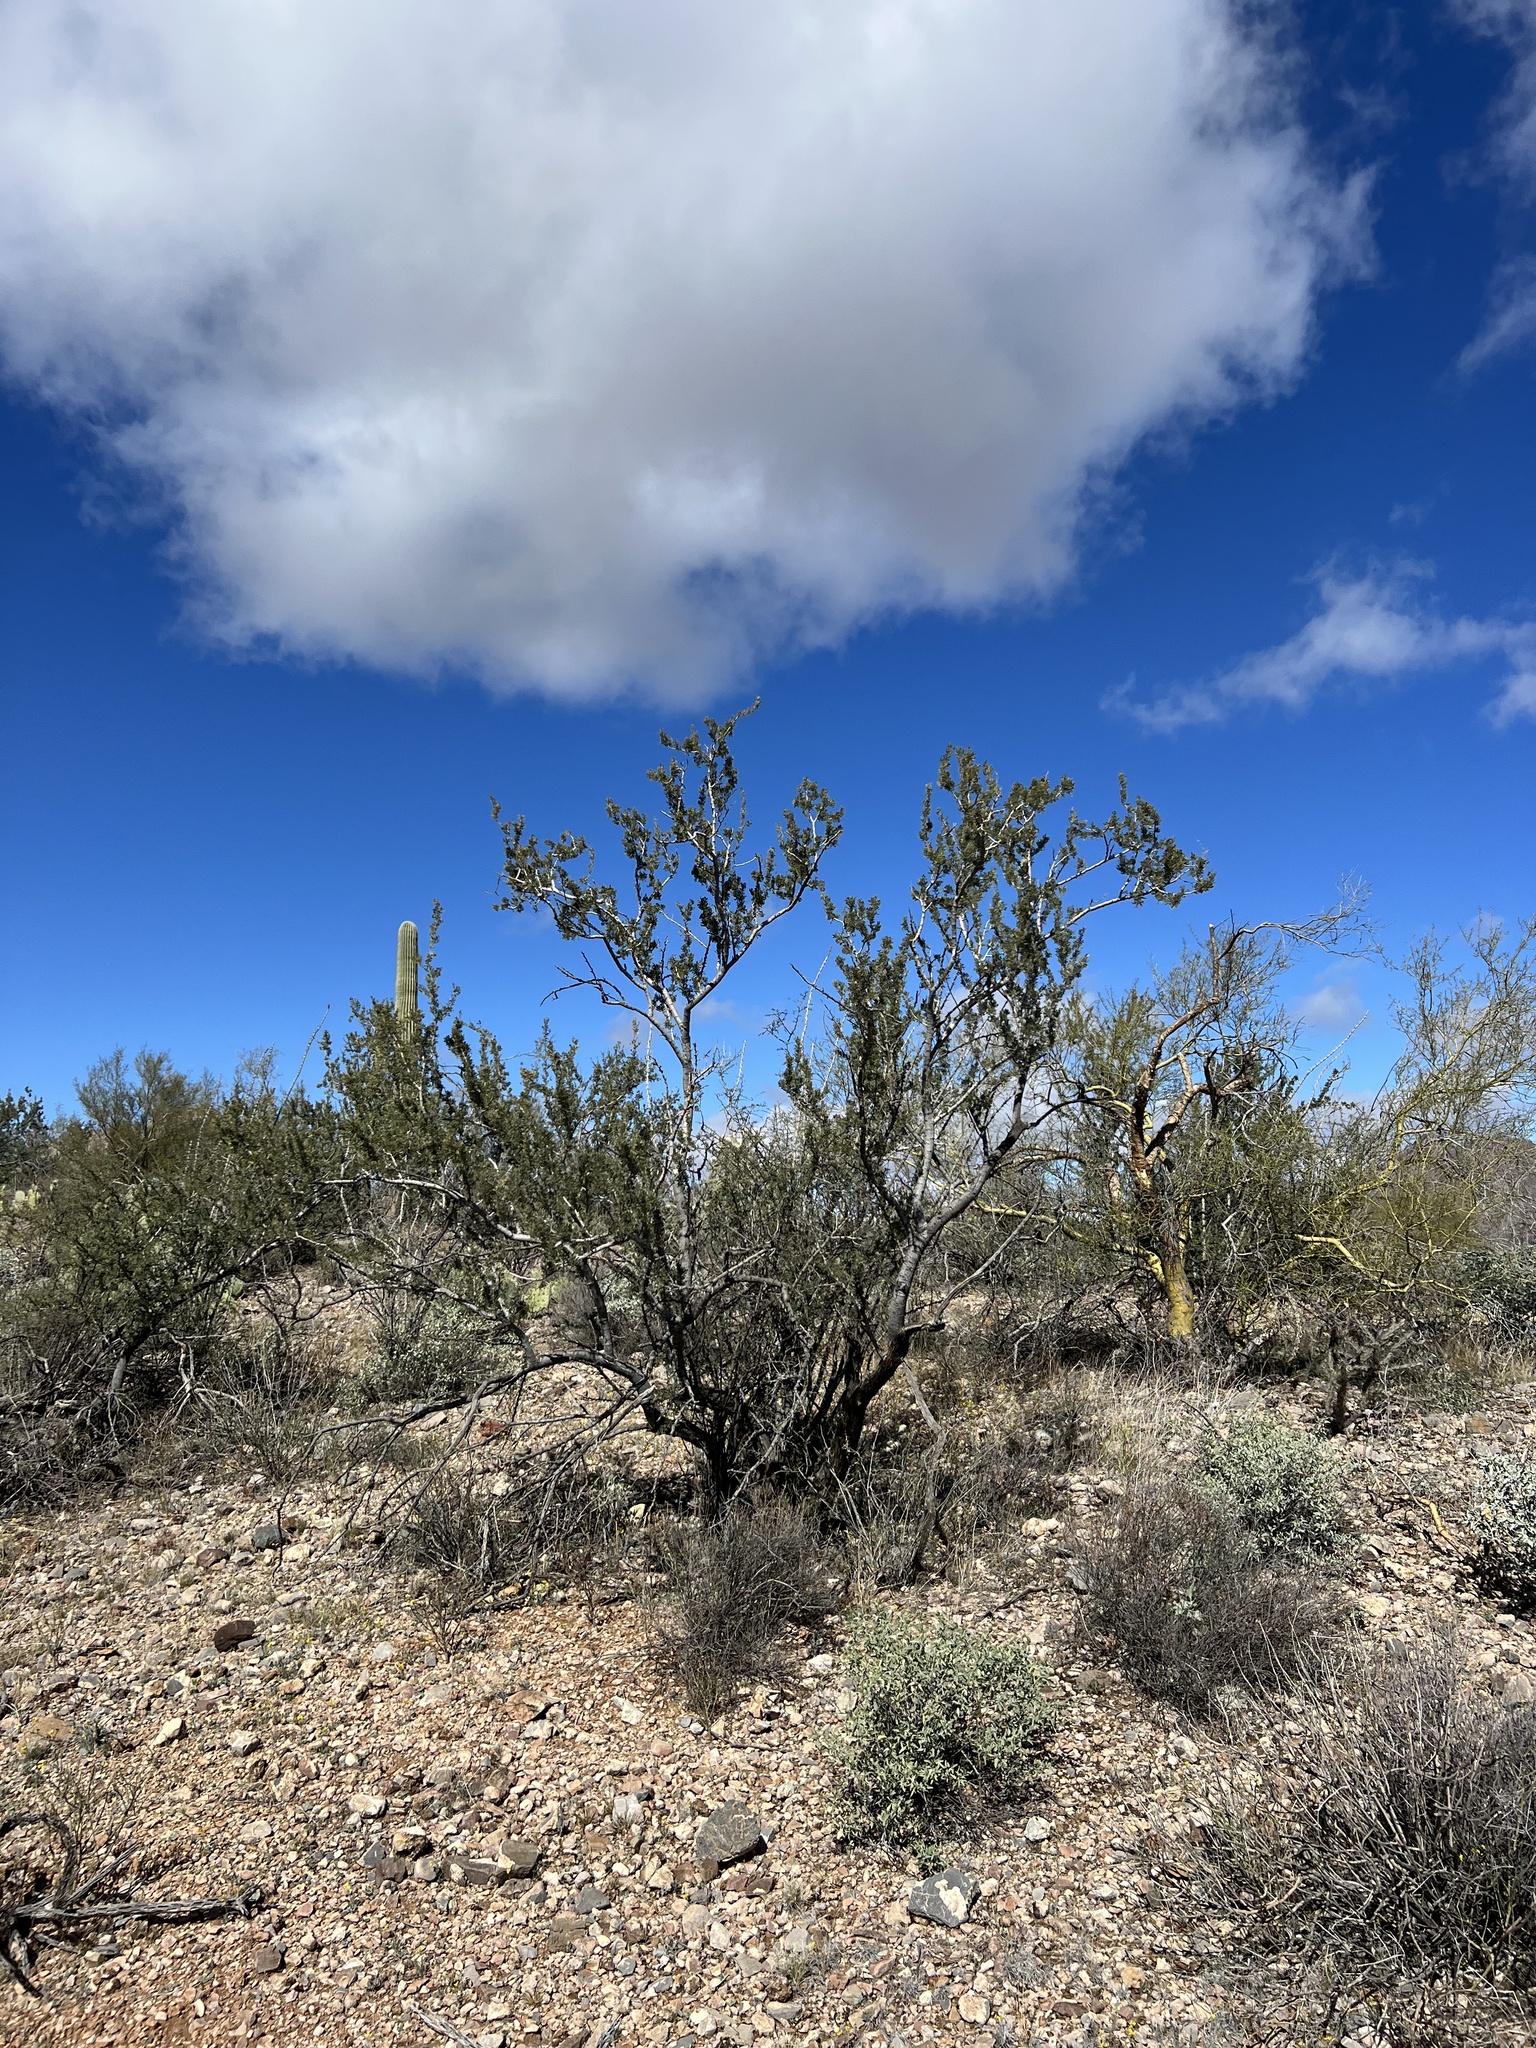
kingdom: Plantae
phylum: Tracheophyta
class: Magnoliopsida
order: Fabales
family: Fabaceae
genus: Olneya
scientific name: Olneya tesota
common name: Desert ironwood
